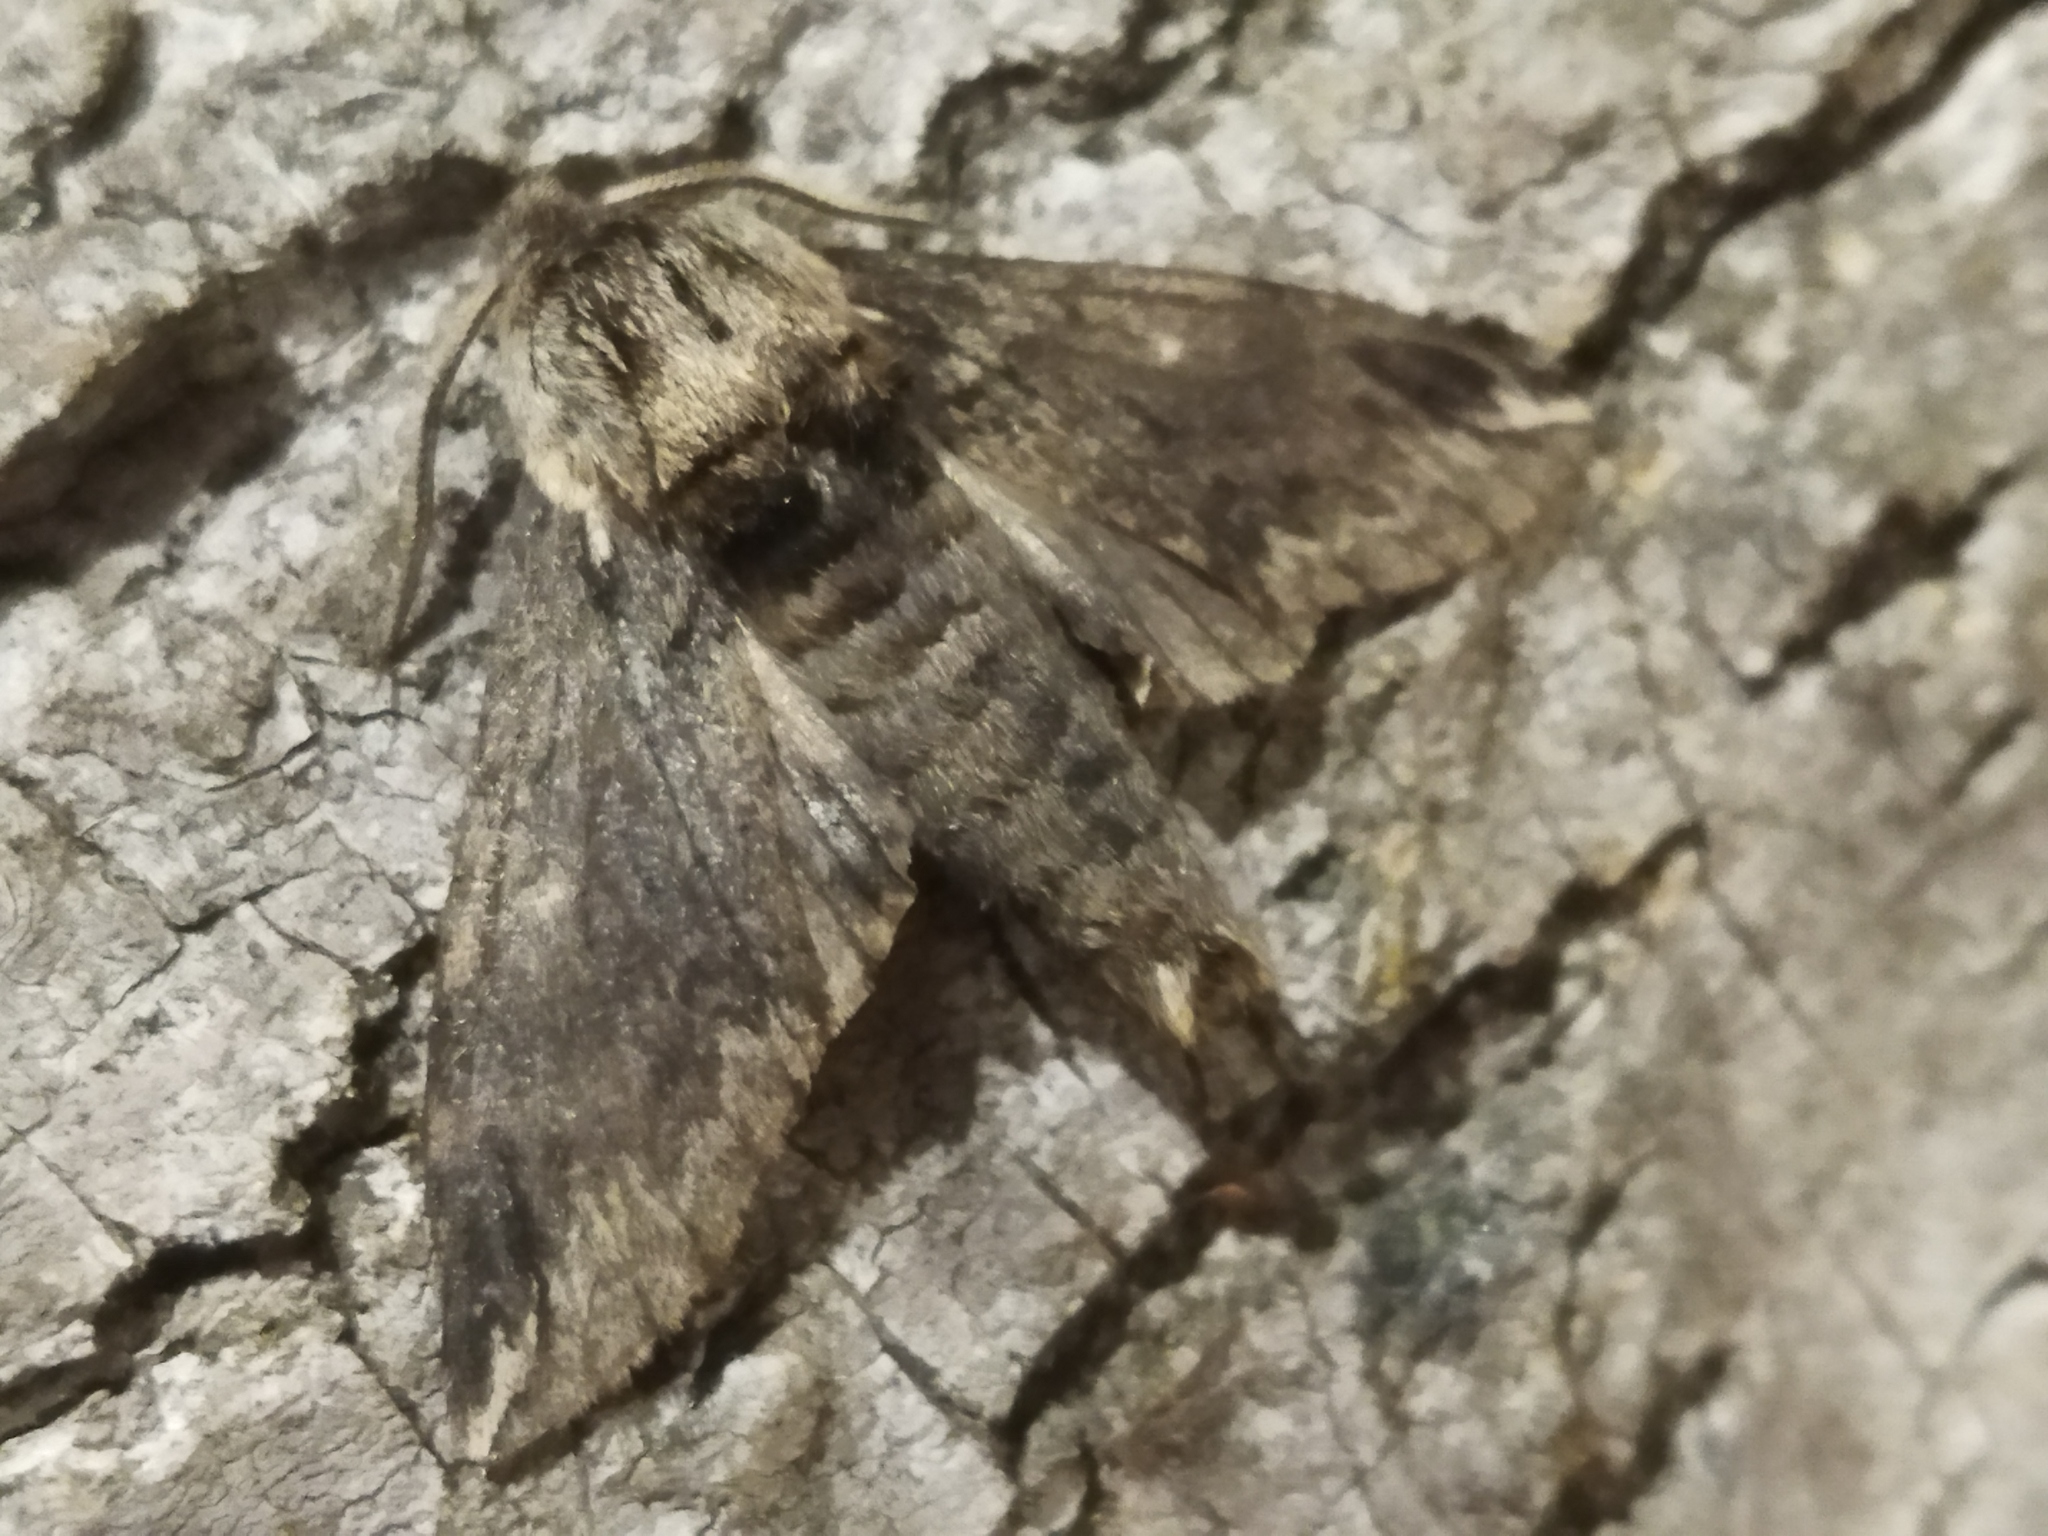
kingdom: Animalia
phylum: Arthropoda
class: Insecta
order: Lepidoptera
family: Sphingidae
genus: Dolbina
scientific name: Dolbina elegans
